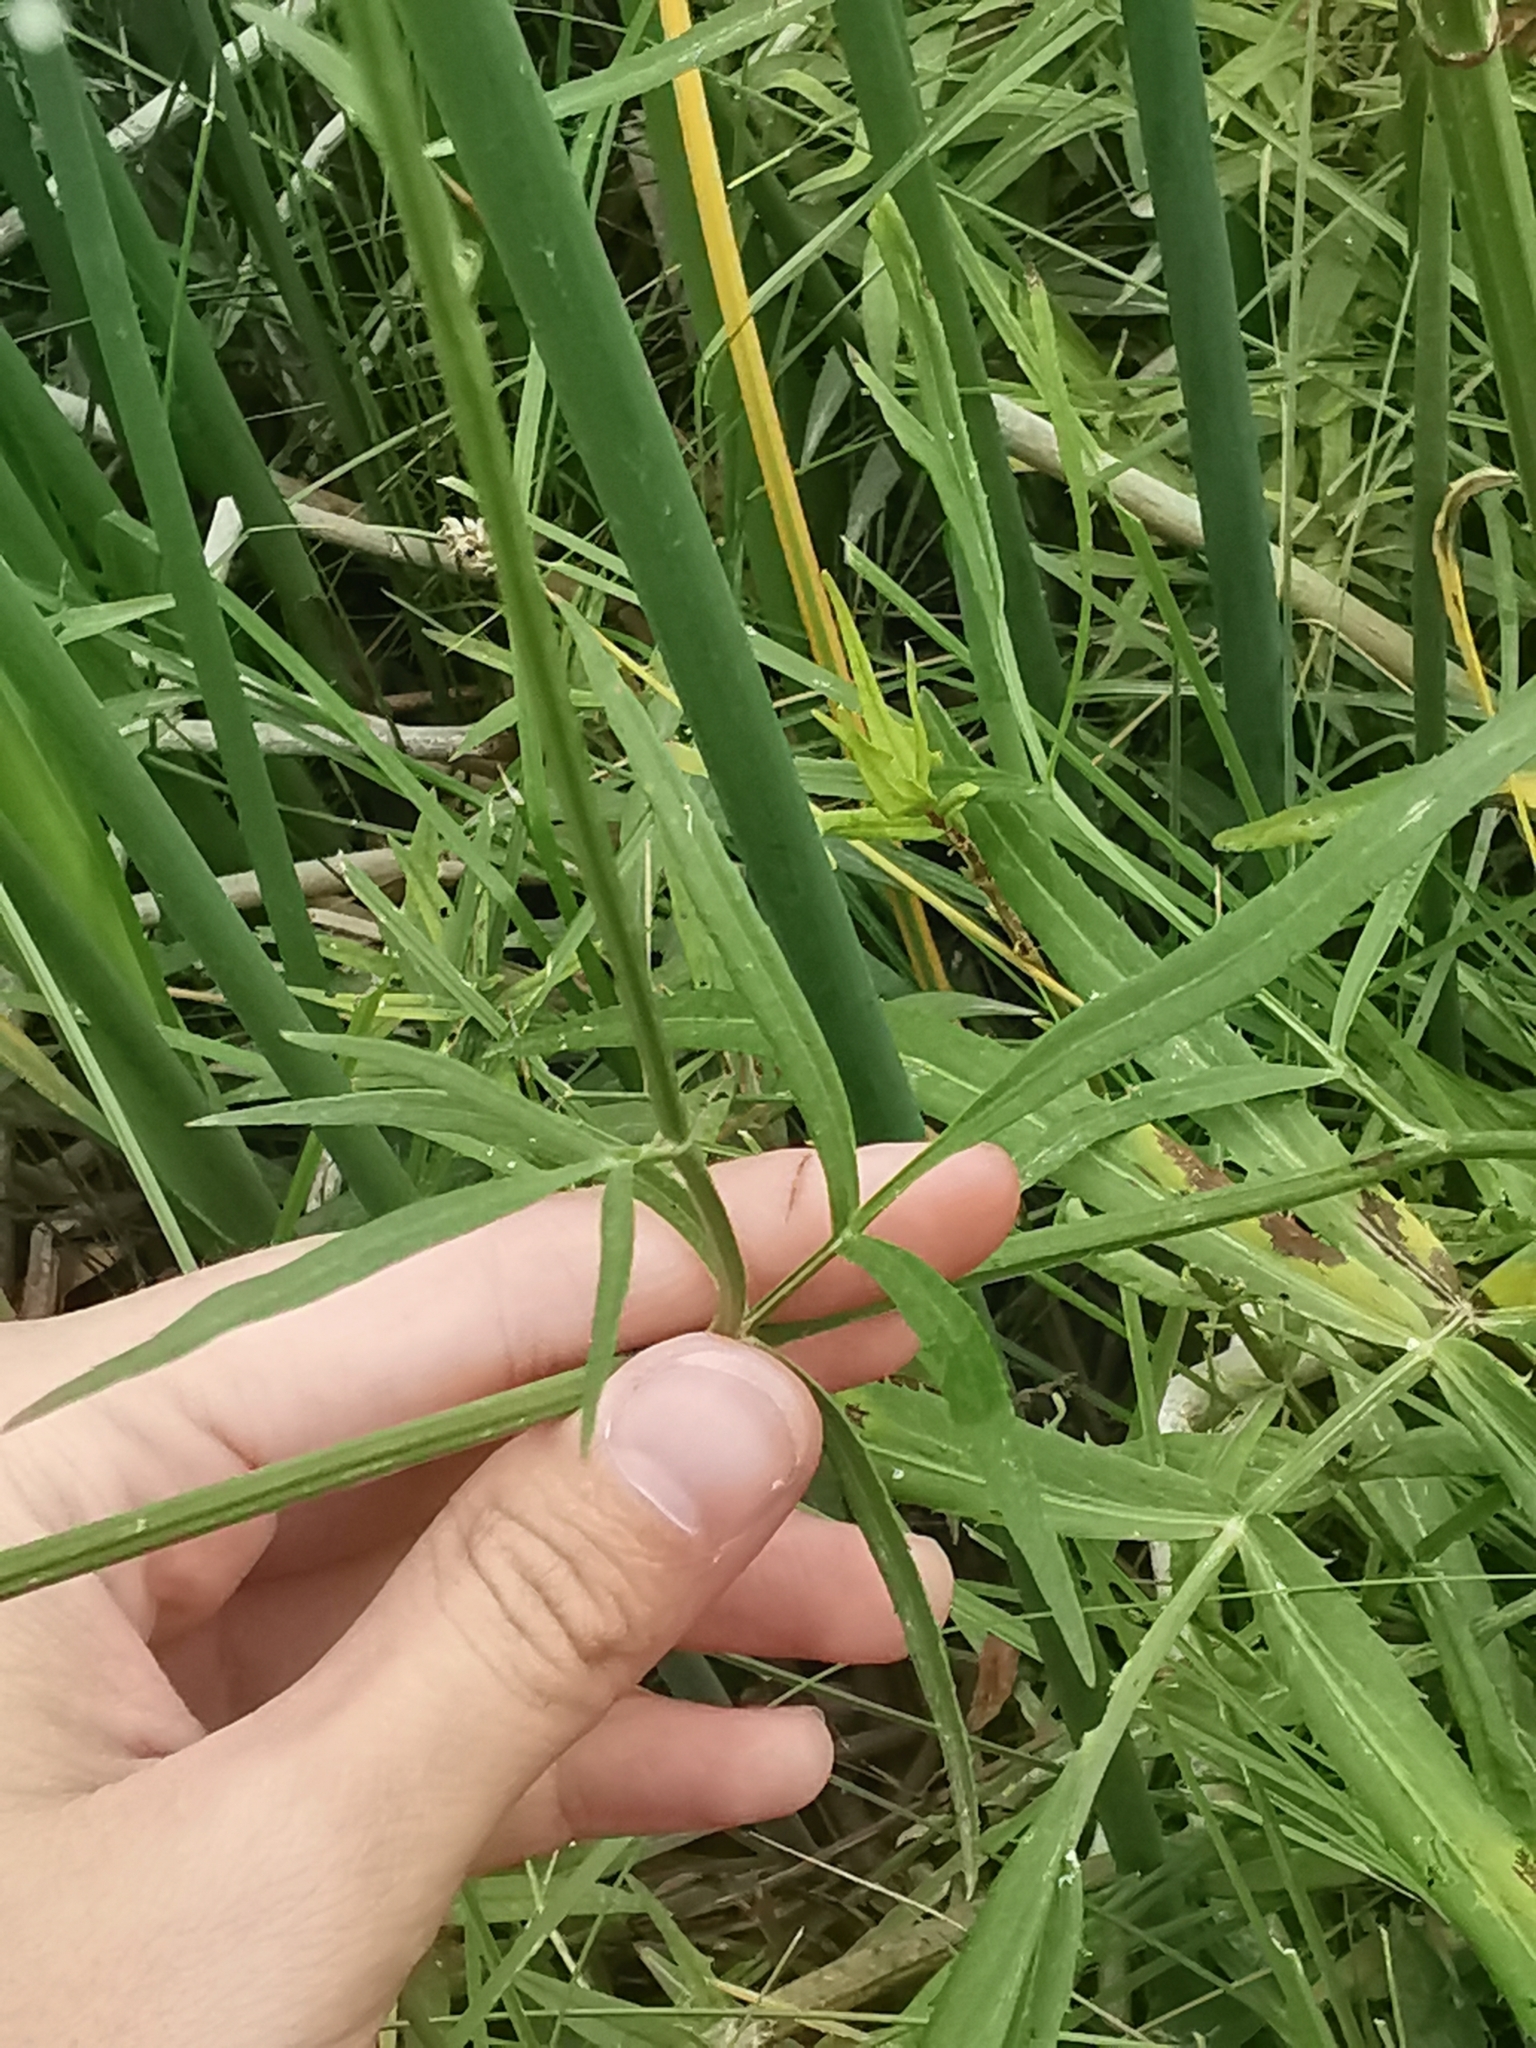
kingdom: Plantae
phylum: Tracheophyta
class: Magnoliopsida
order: Apiales
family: Apiaceae
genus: Sium
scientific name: Sium suave
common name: Hemlock water-parsnip
